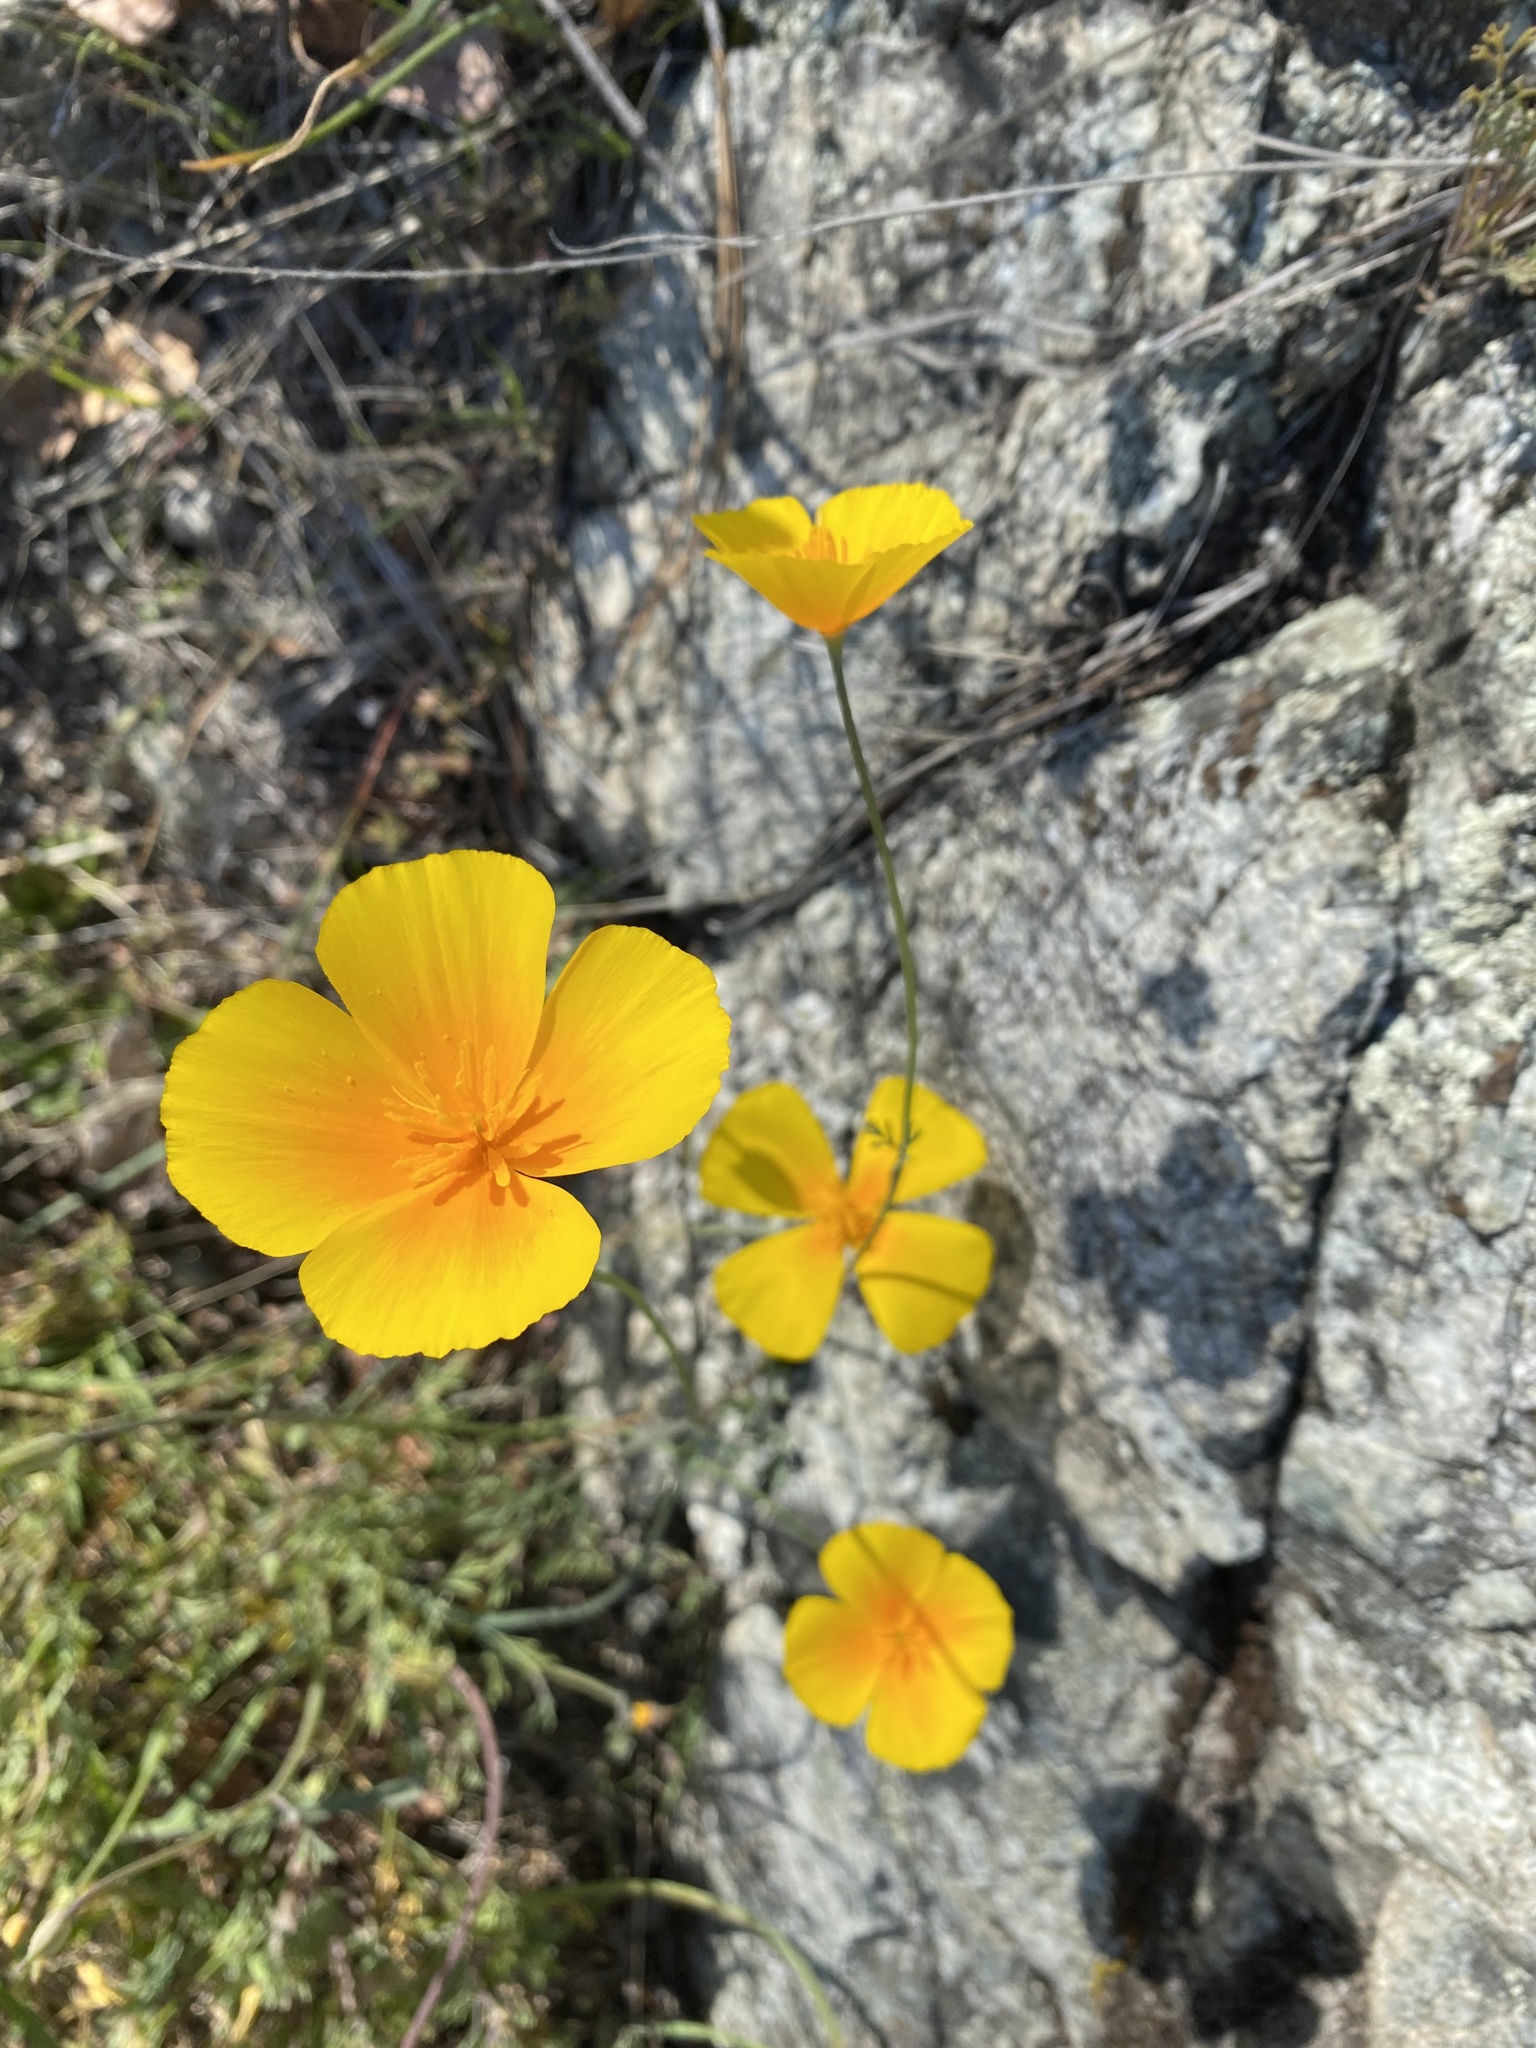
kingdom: Plantae
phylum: Tracheophyta
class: Magnoliopsida
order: Ranunculales
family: Papaveraceae
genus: Eschscholzia
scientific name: Eschscholzia caespitosa
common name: Tufted california-poppy
